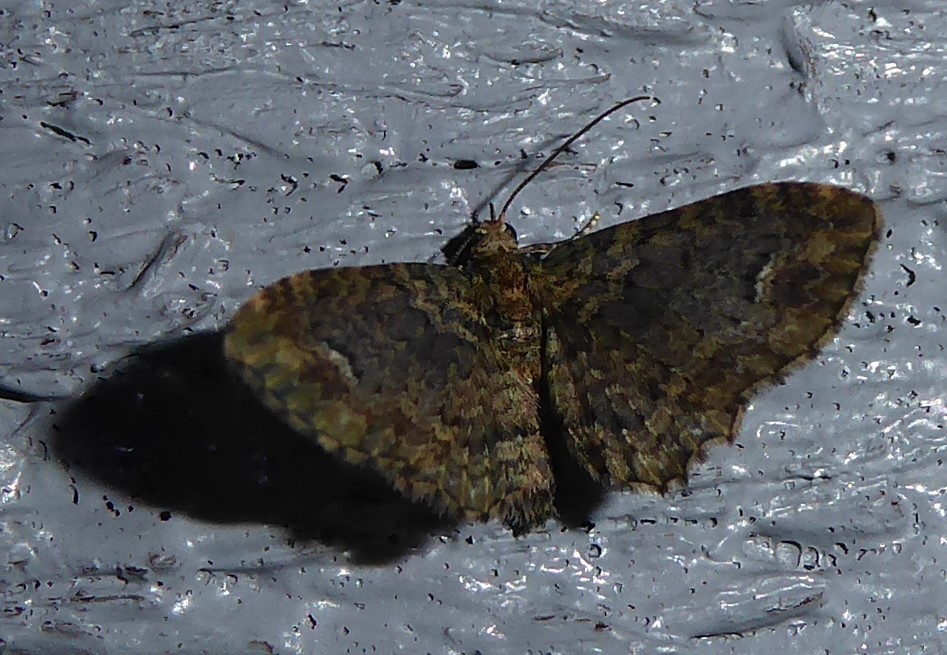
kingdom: Animalia
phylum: Arthropoda
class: Insecta
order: Lepidoptera
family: Geometridae
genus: Pasiphilodes
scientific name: Pasiphilodes testulata
